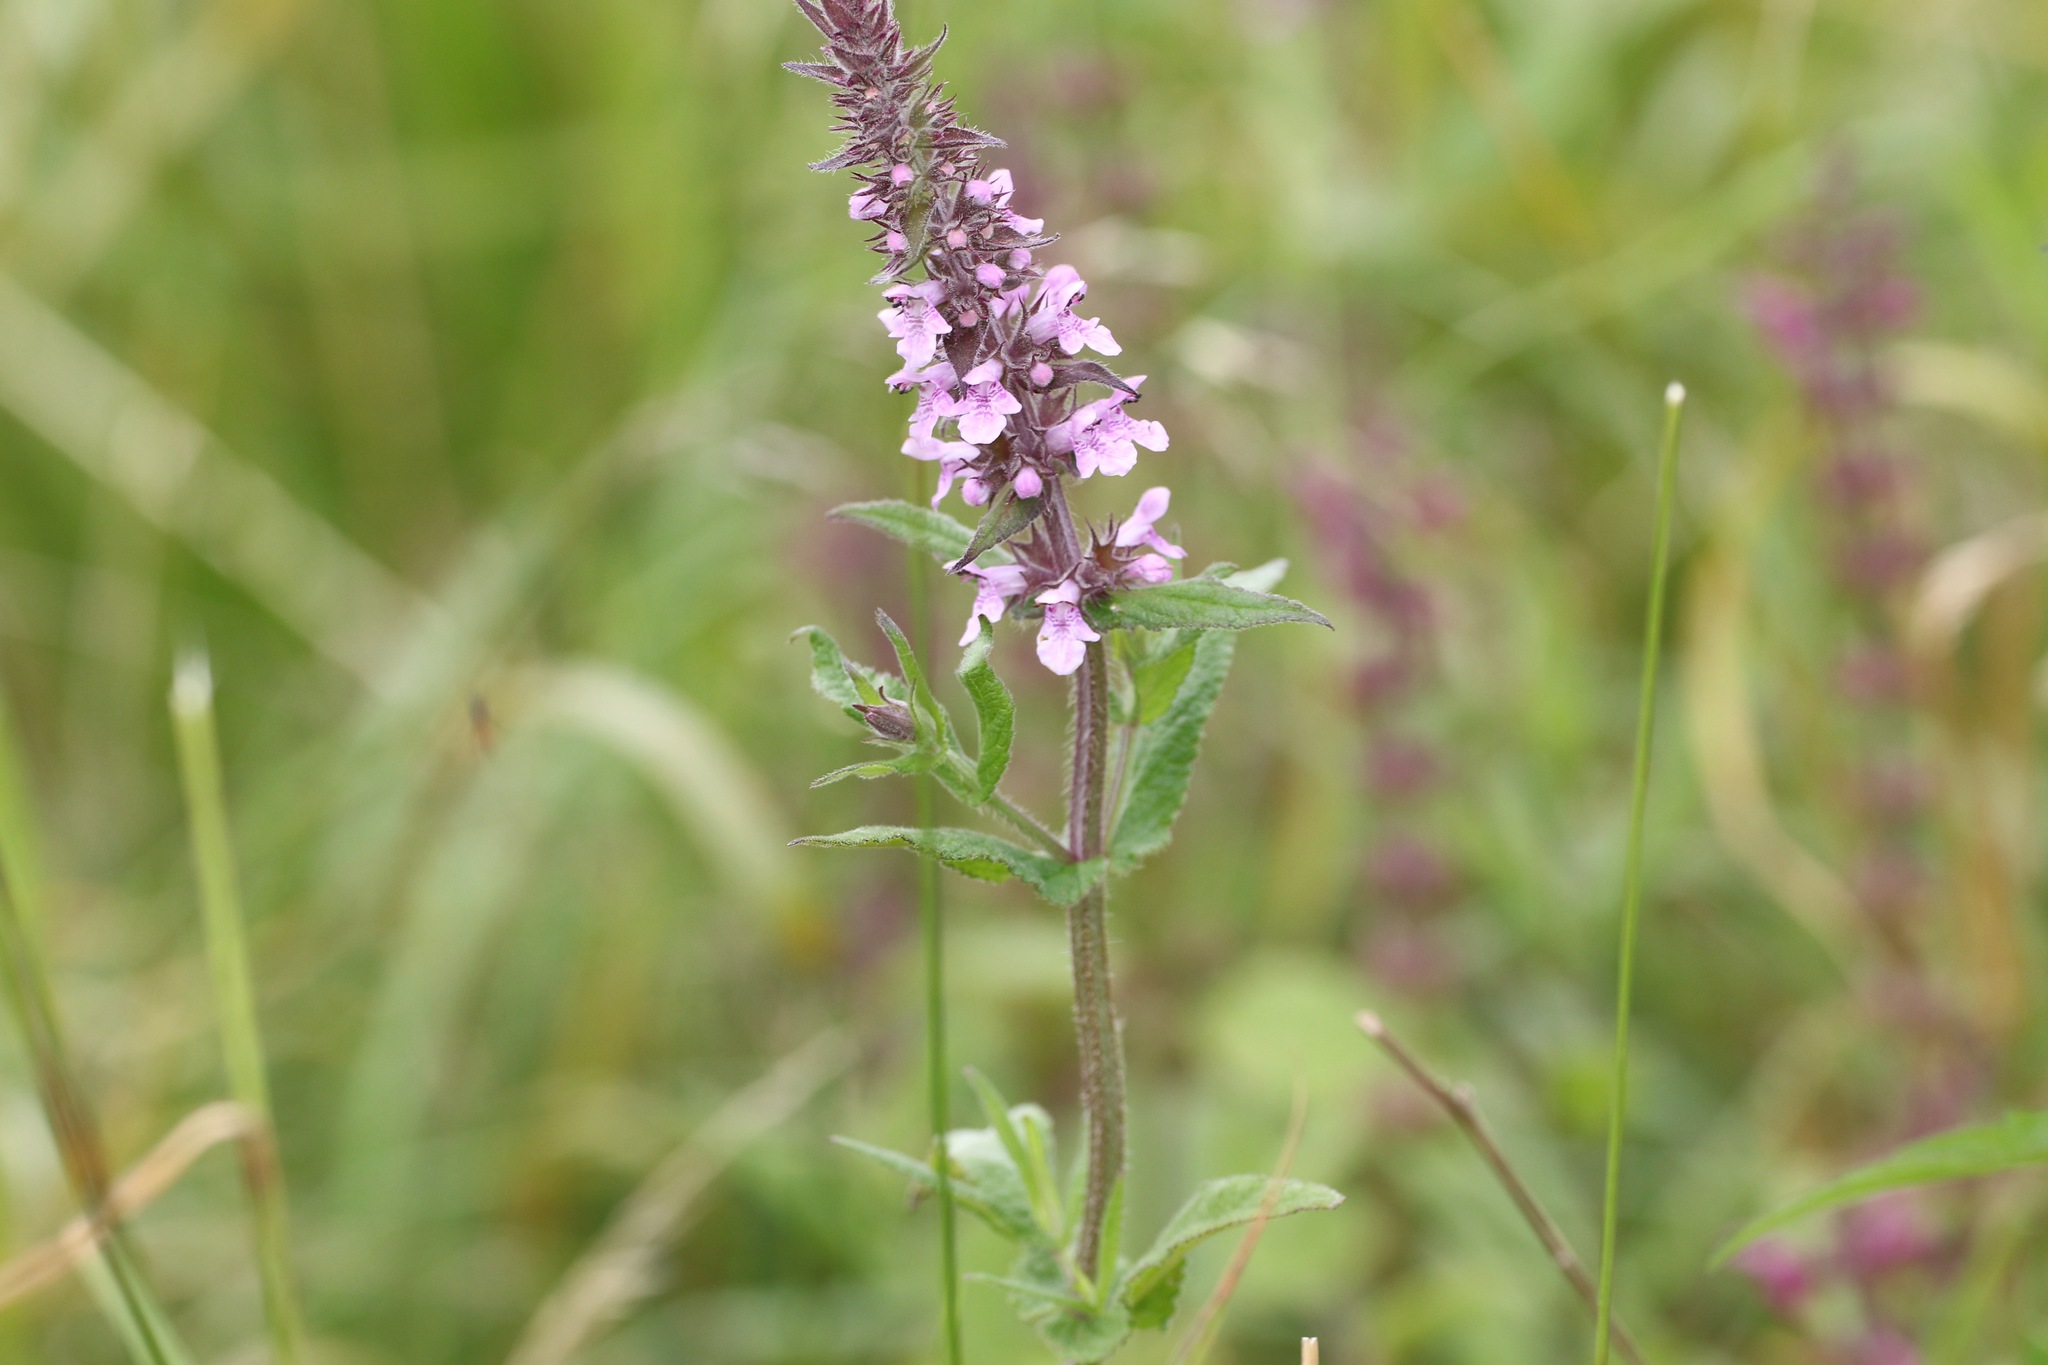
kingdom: Plantae
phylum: Tracheophyta
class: Magnoliopsida
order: Lamiales
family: Lamiaceae
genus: Stachys
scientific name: Stachys palustris
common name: Marsh woundwort
